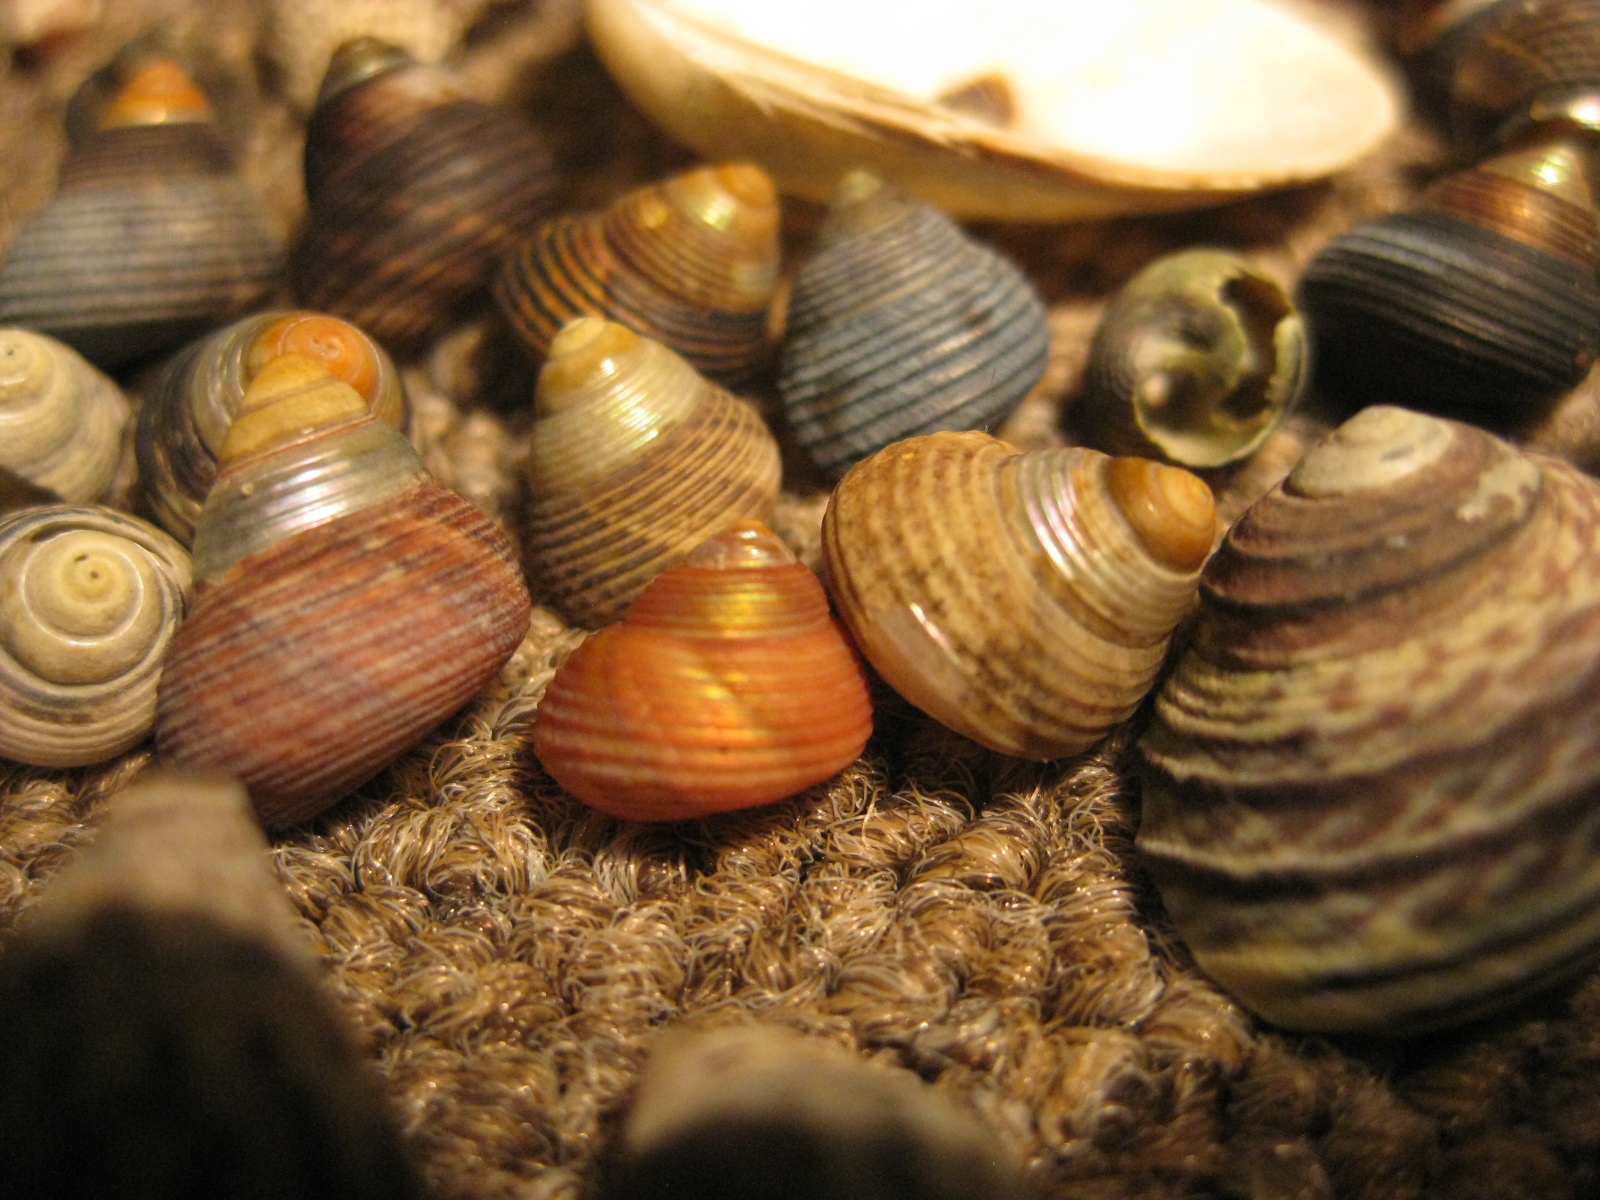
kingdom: Animalia
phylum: Mollusca
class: Gastropoda
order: Trochida
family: Trochidae
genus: Micrelenchus
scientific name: Micrelenchus huttonii
